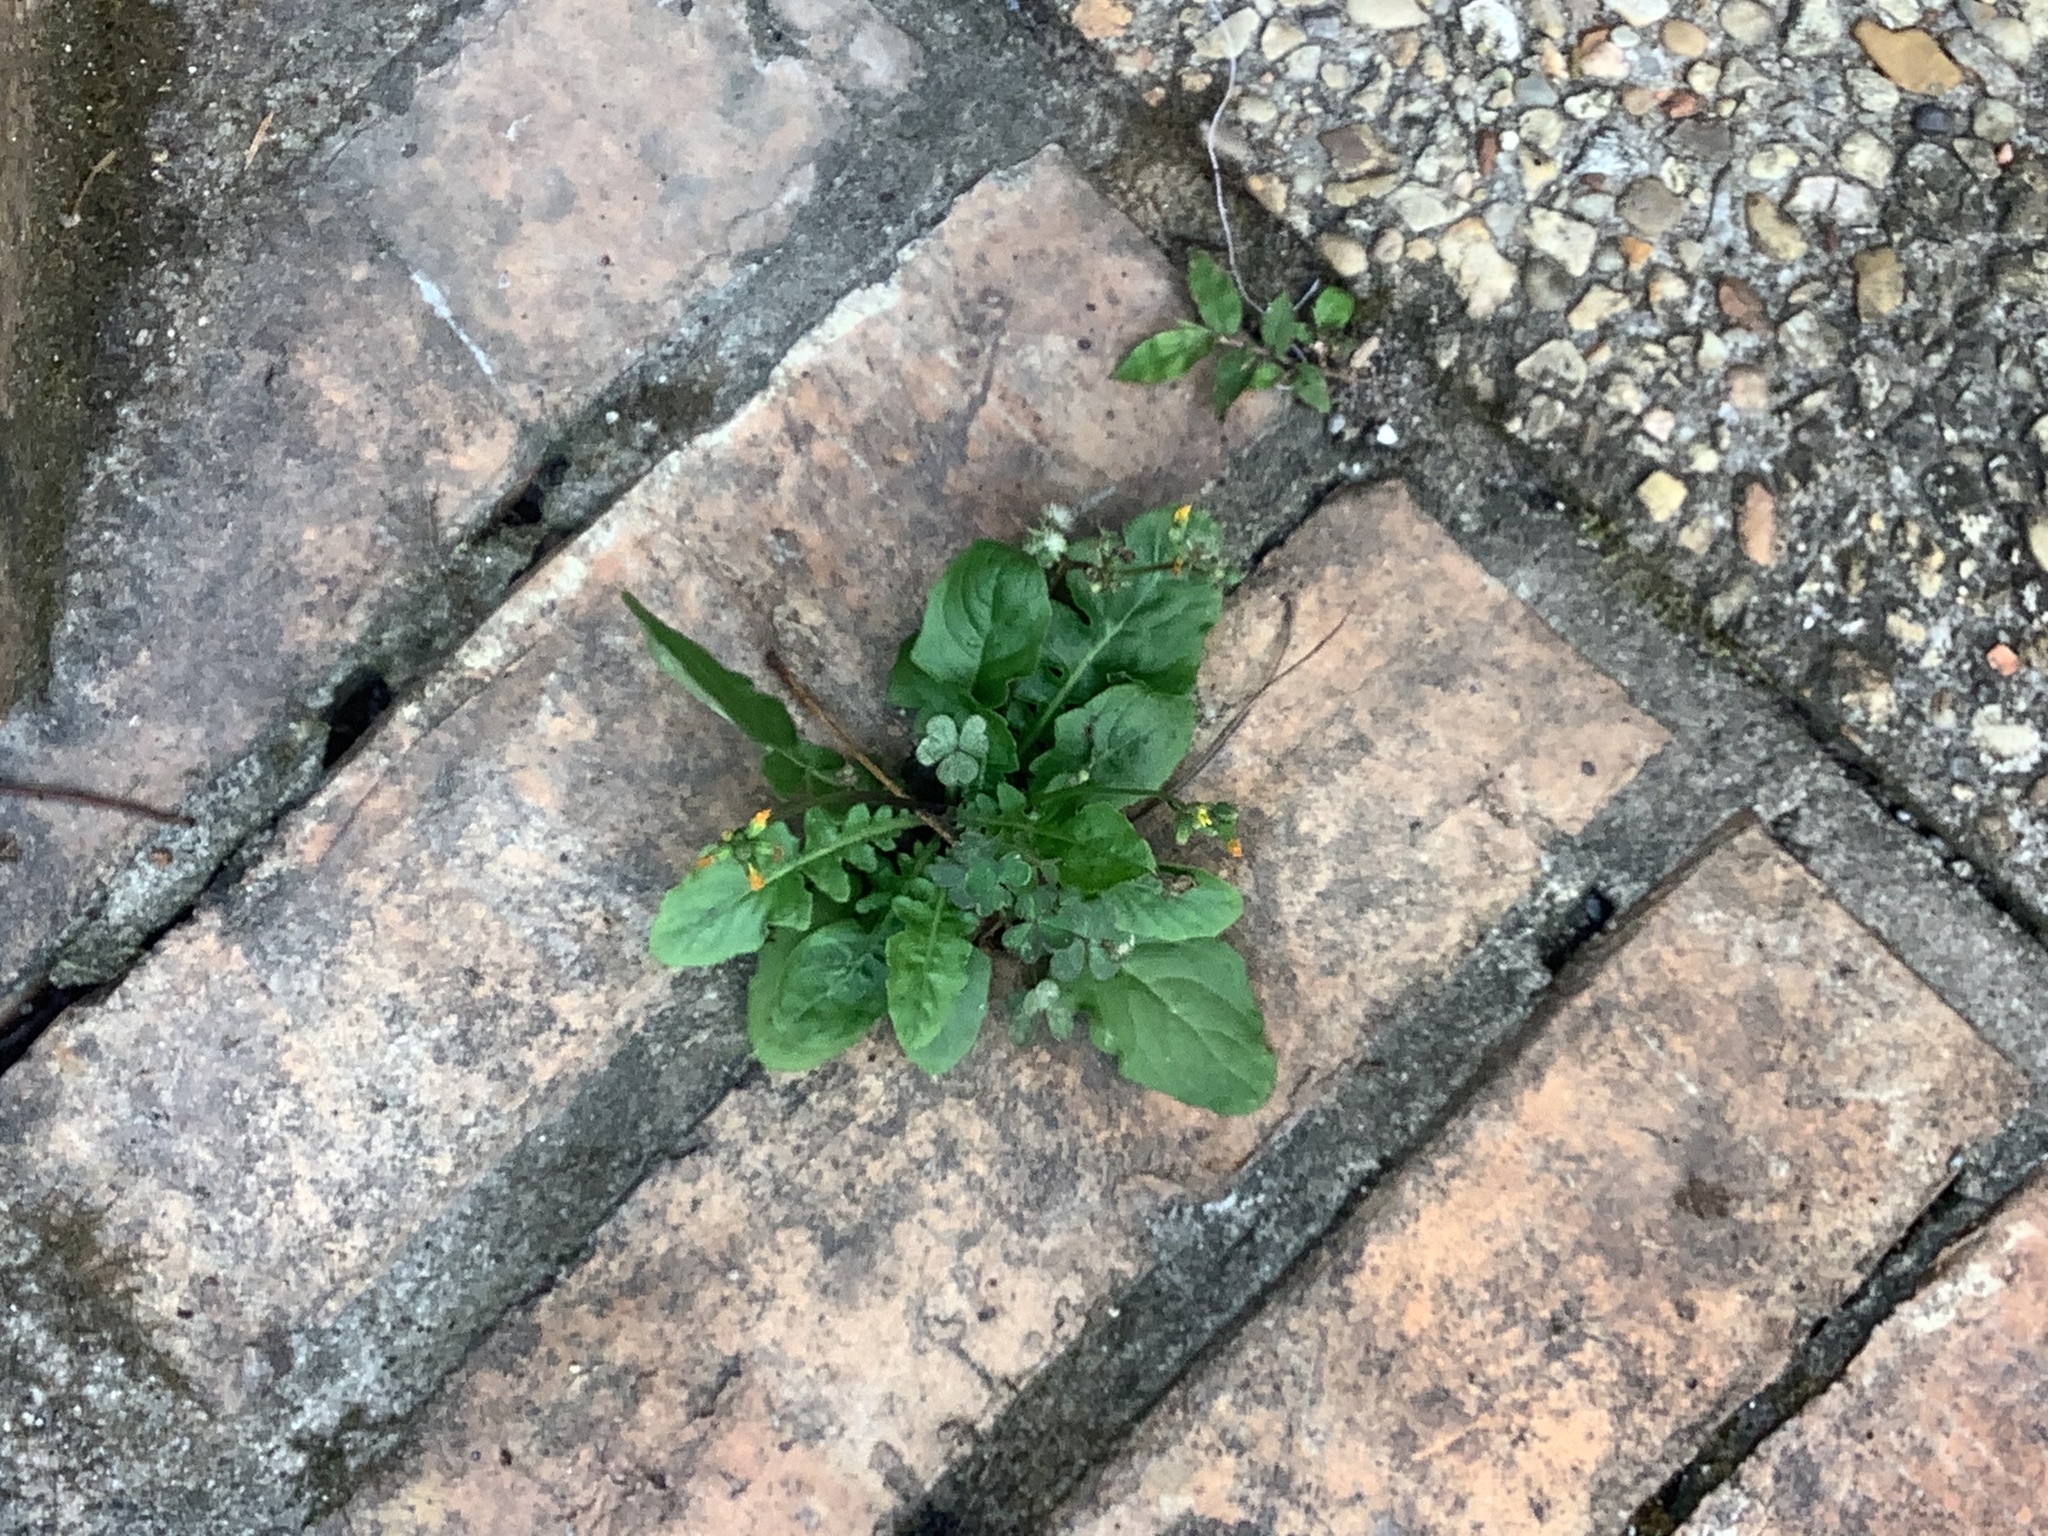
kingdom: Plantae
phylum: Tracheophyta
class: Magnoliopsida
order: Asterales
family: Asteraceae
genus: Youngia
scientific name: Youngia japonica
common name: Oriental false hawksbeard
